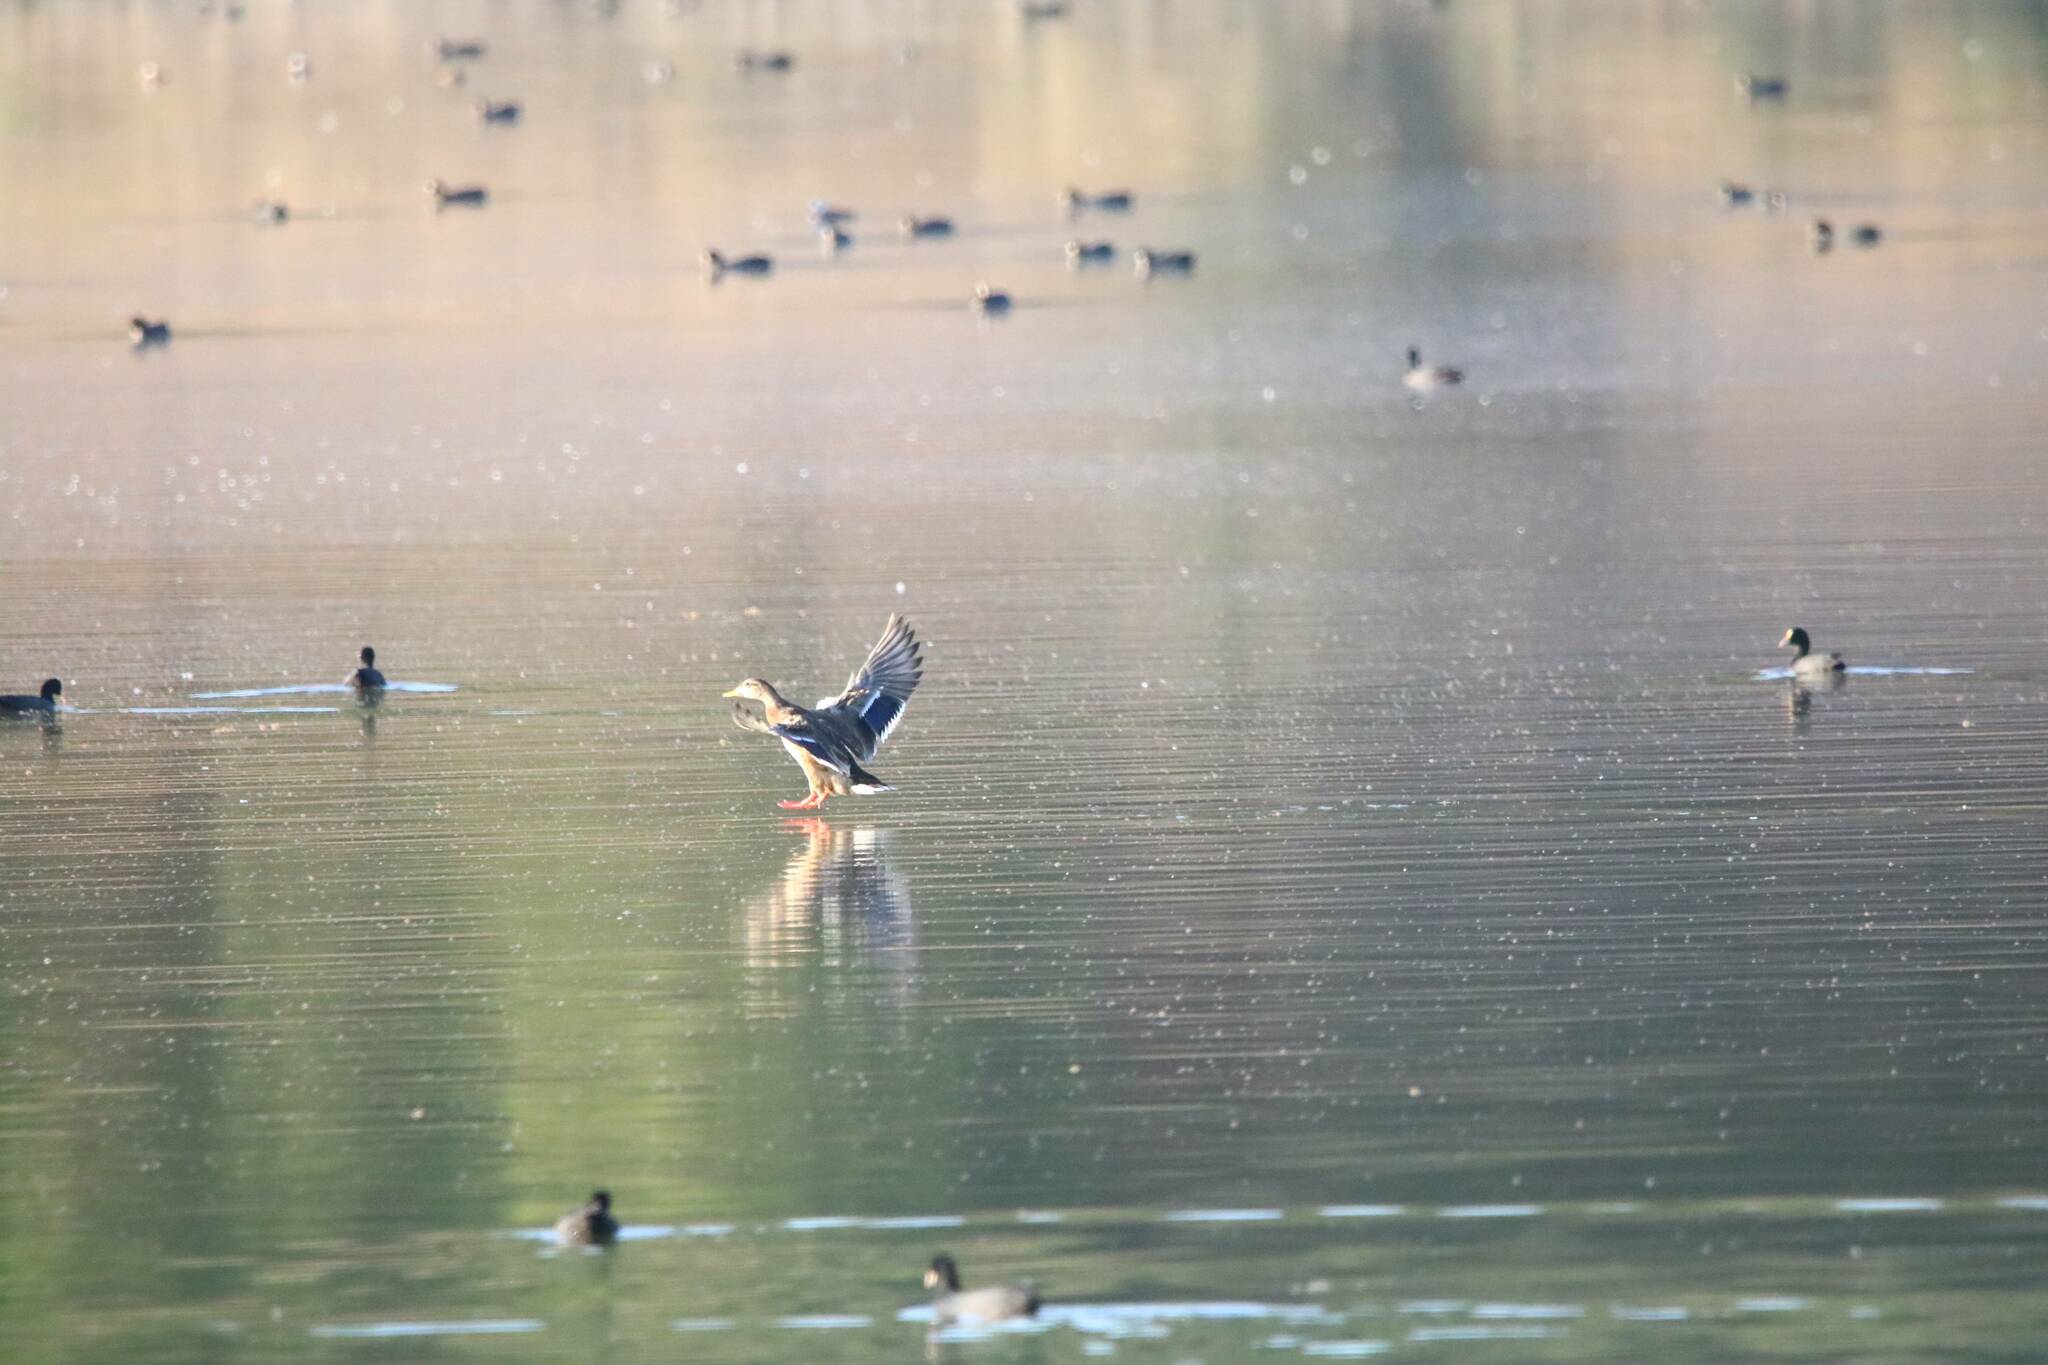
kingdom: Animalia
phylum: Chordata
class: Aves
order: Anseriformes
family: Anatidae
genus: Anas
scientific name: Anas platyrhynchos
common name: Mallard
